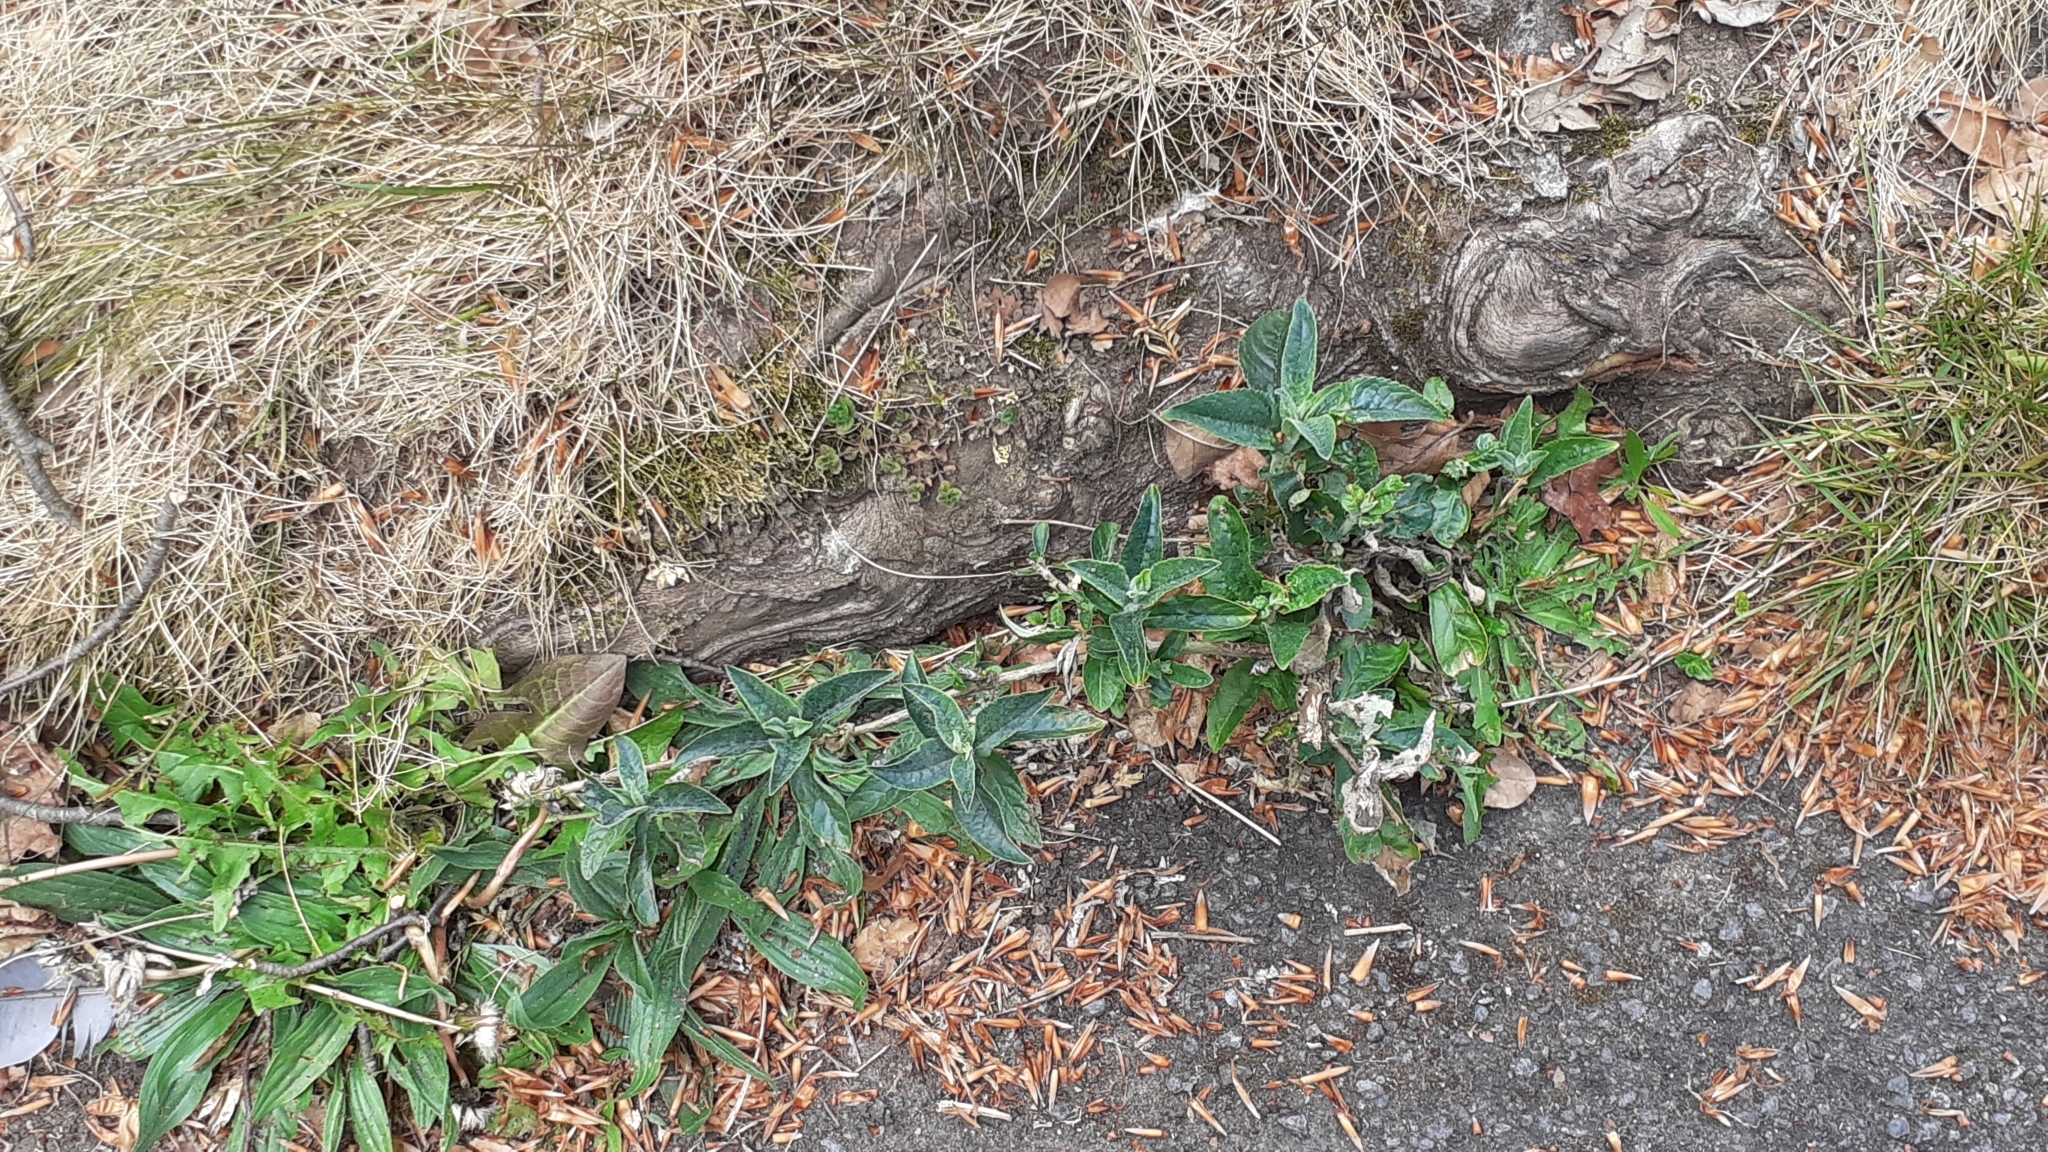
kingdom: Plantae
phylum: Tracheophyta
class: Magnoliopsida
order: Lamiales
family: Scrophulariaceae
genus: Buddleja
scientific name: Buddleja davidii
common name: Butterfly-bush
